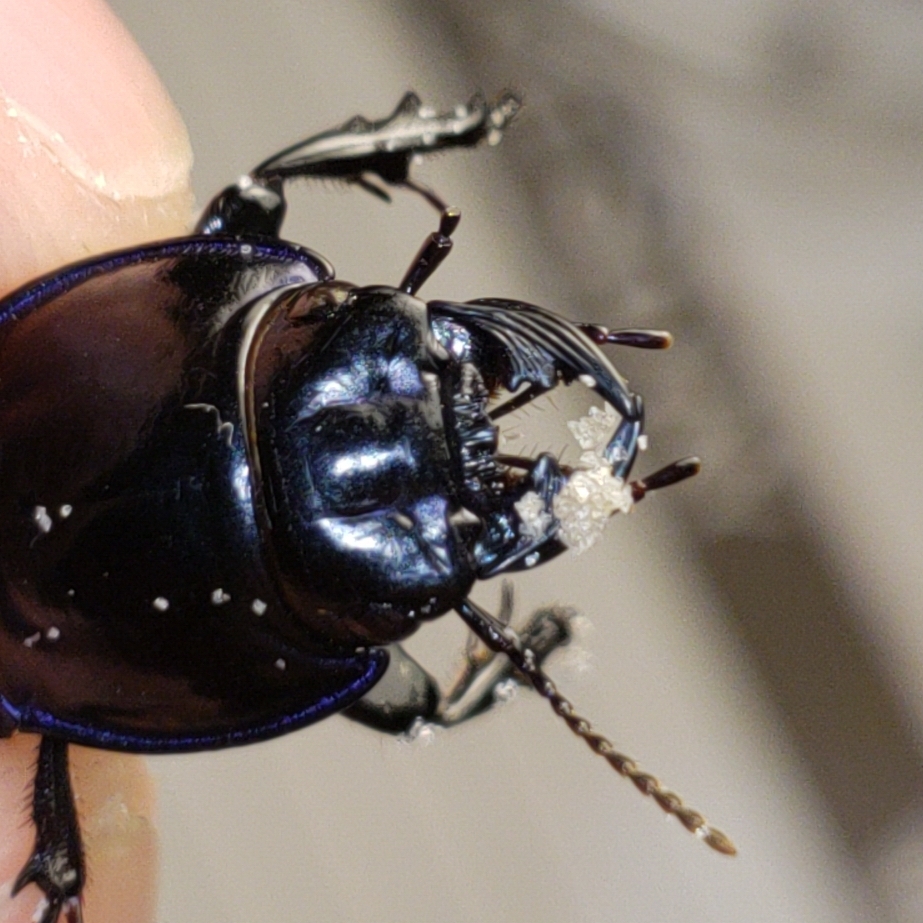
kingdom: Animalia
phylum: Arthropoda
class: Insecta
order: Coleoptera
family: Carabidae
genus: Pasimachus
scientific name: Pasimachus sublaevis
